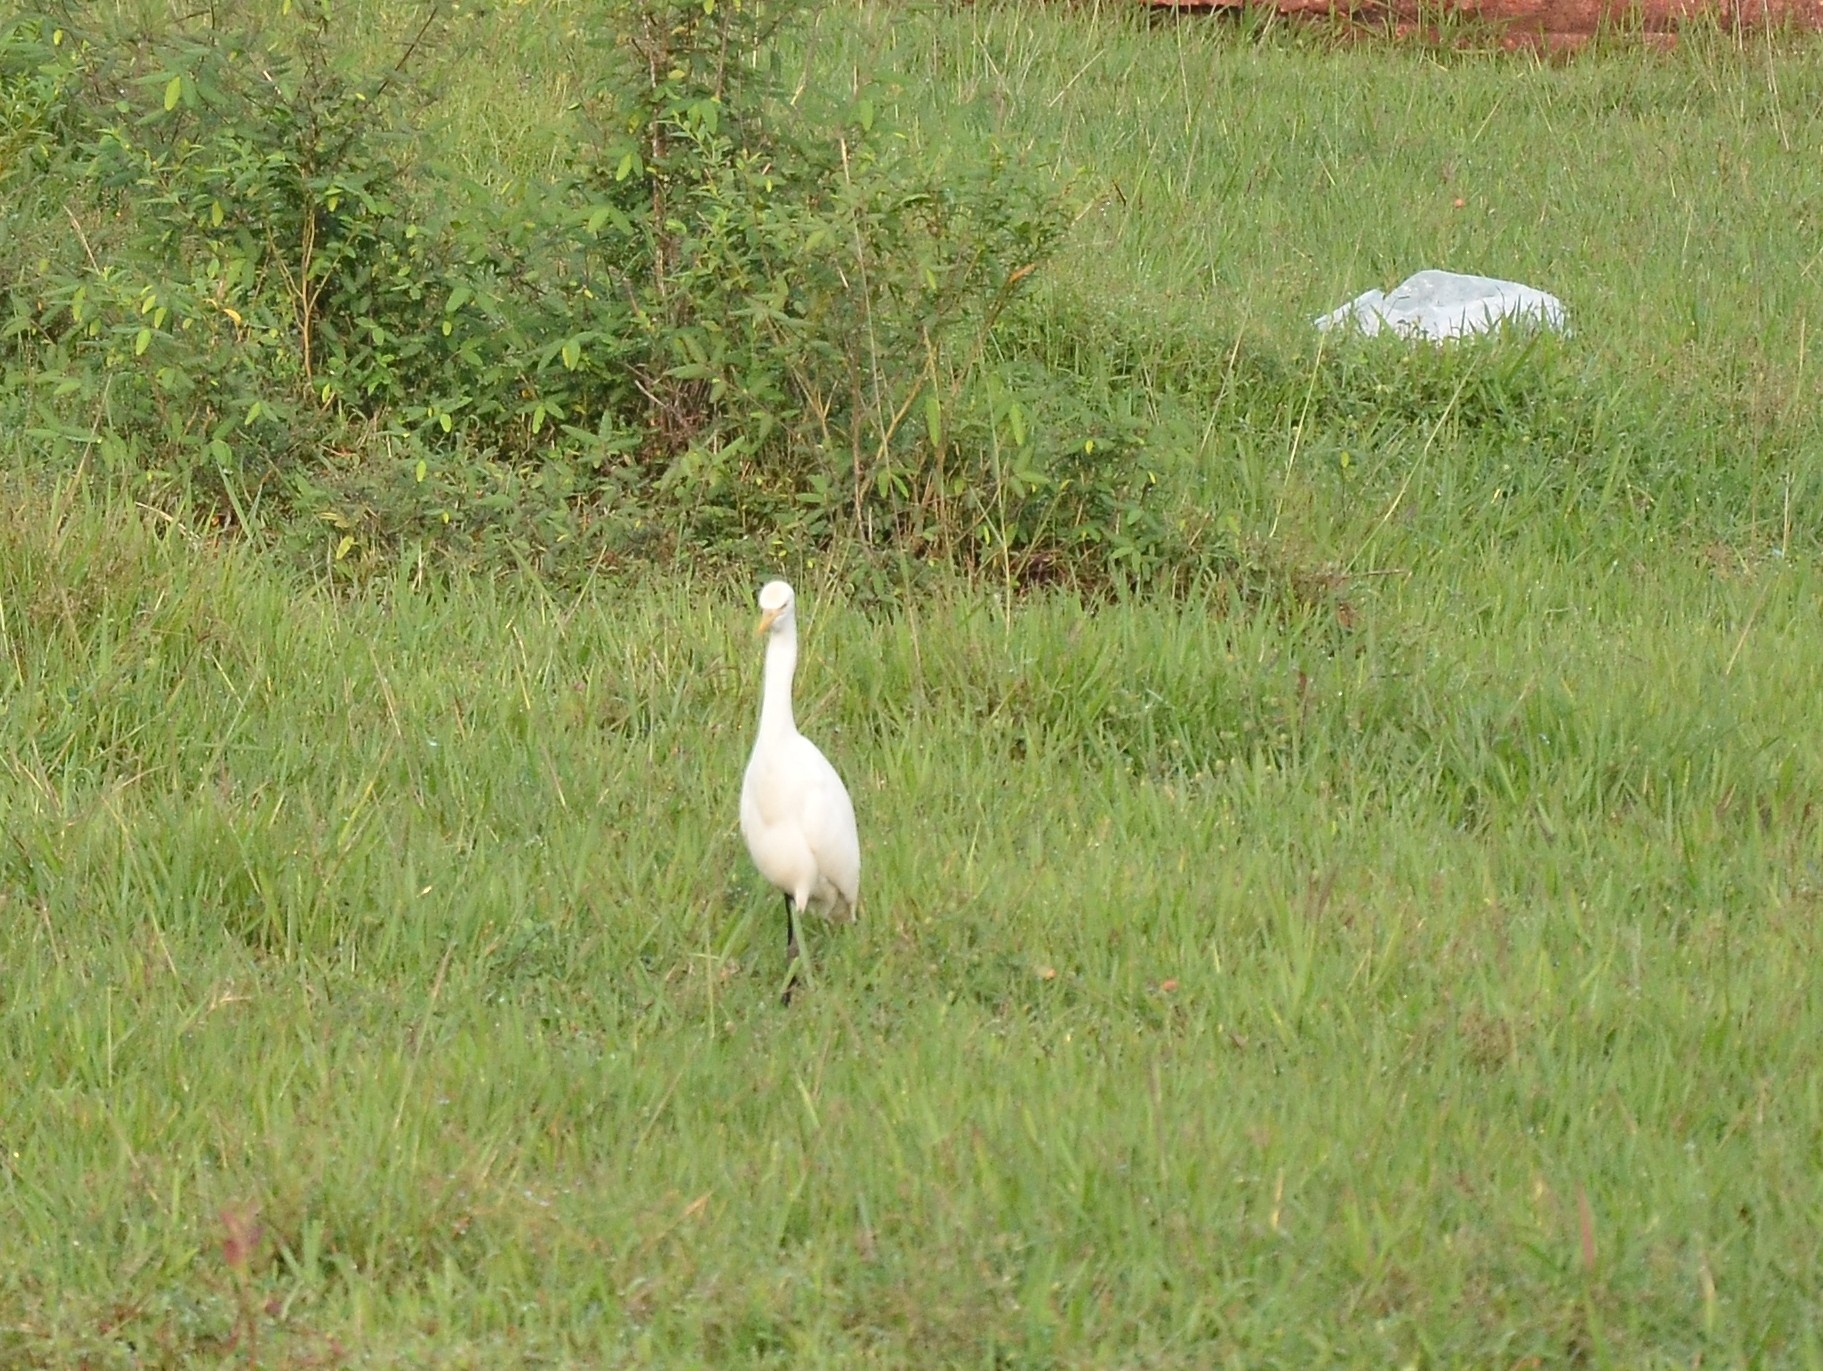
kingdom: Animalia
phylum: Chordata
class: Aves
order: Pelecaniformes
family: Ardeidae
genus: Bubulcus
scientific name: Bubulcus coromandus
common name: Eastern cattle egret
